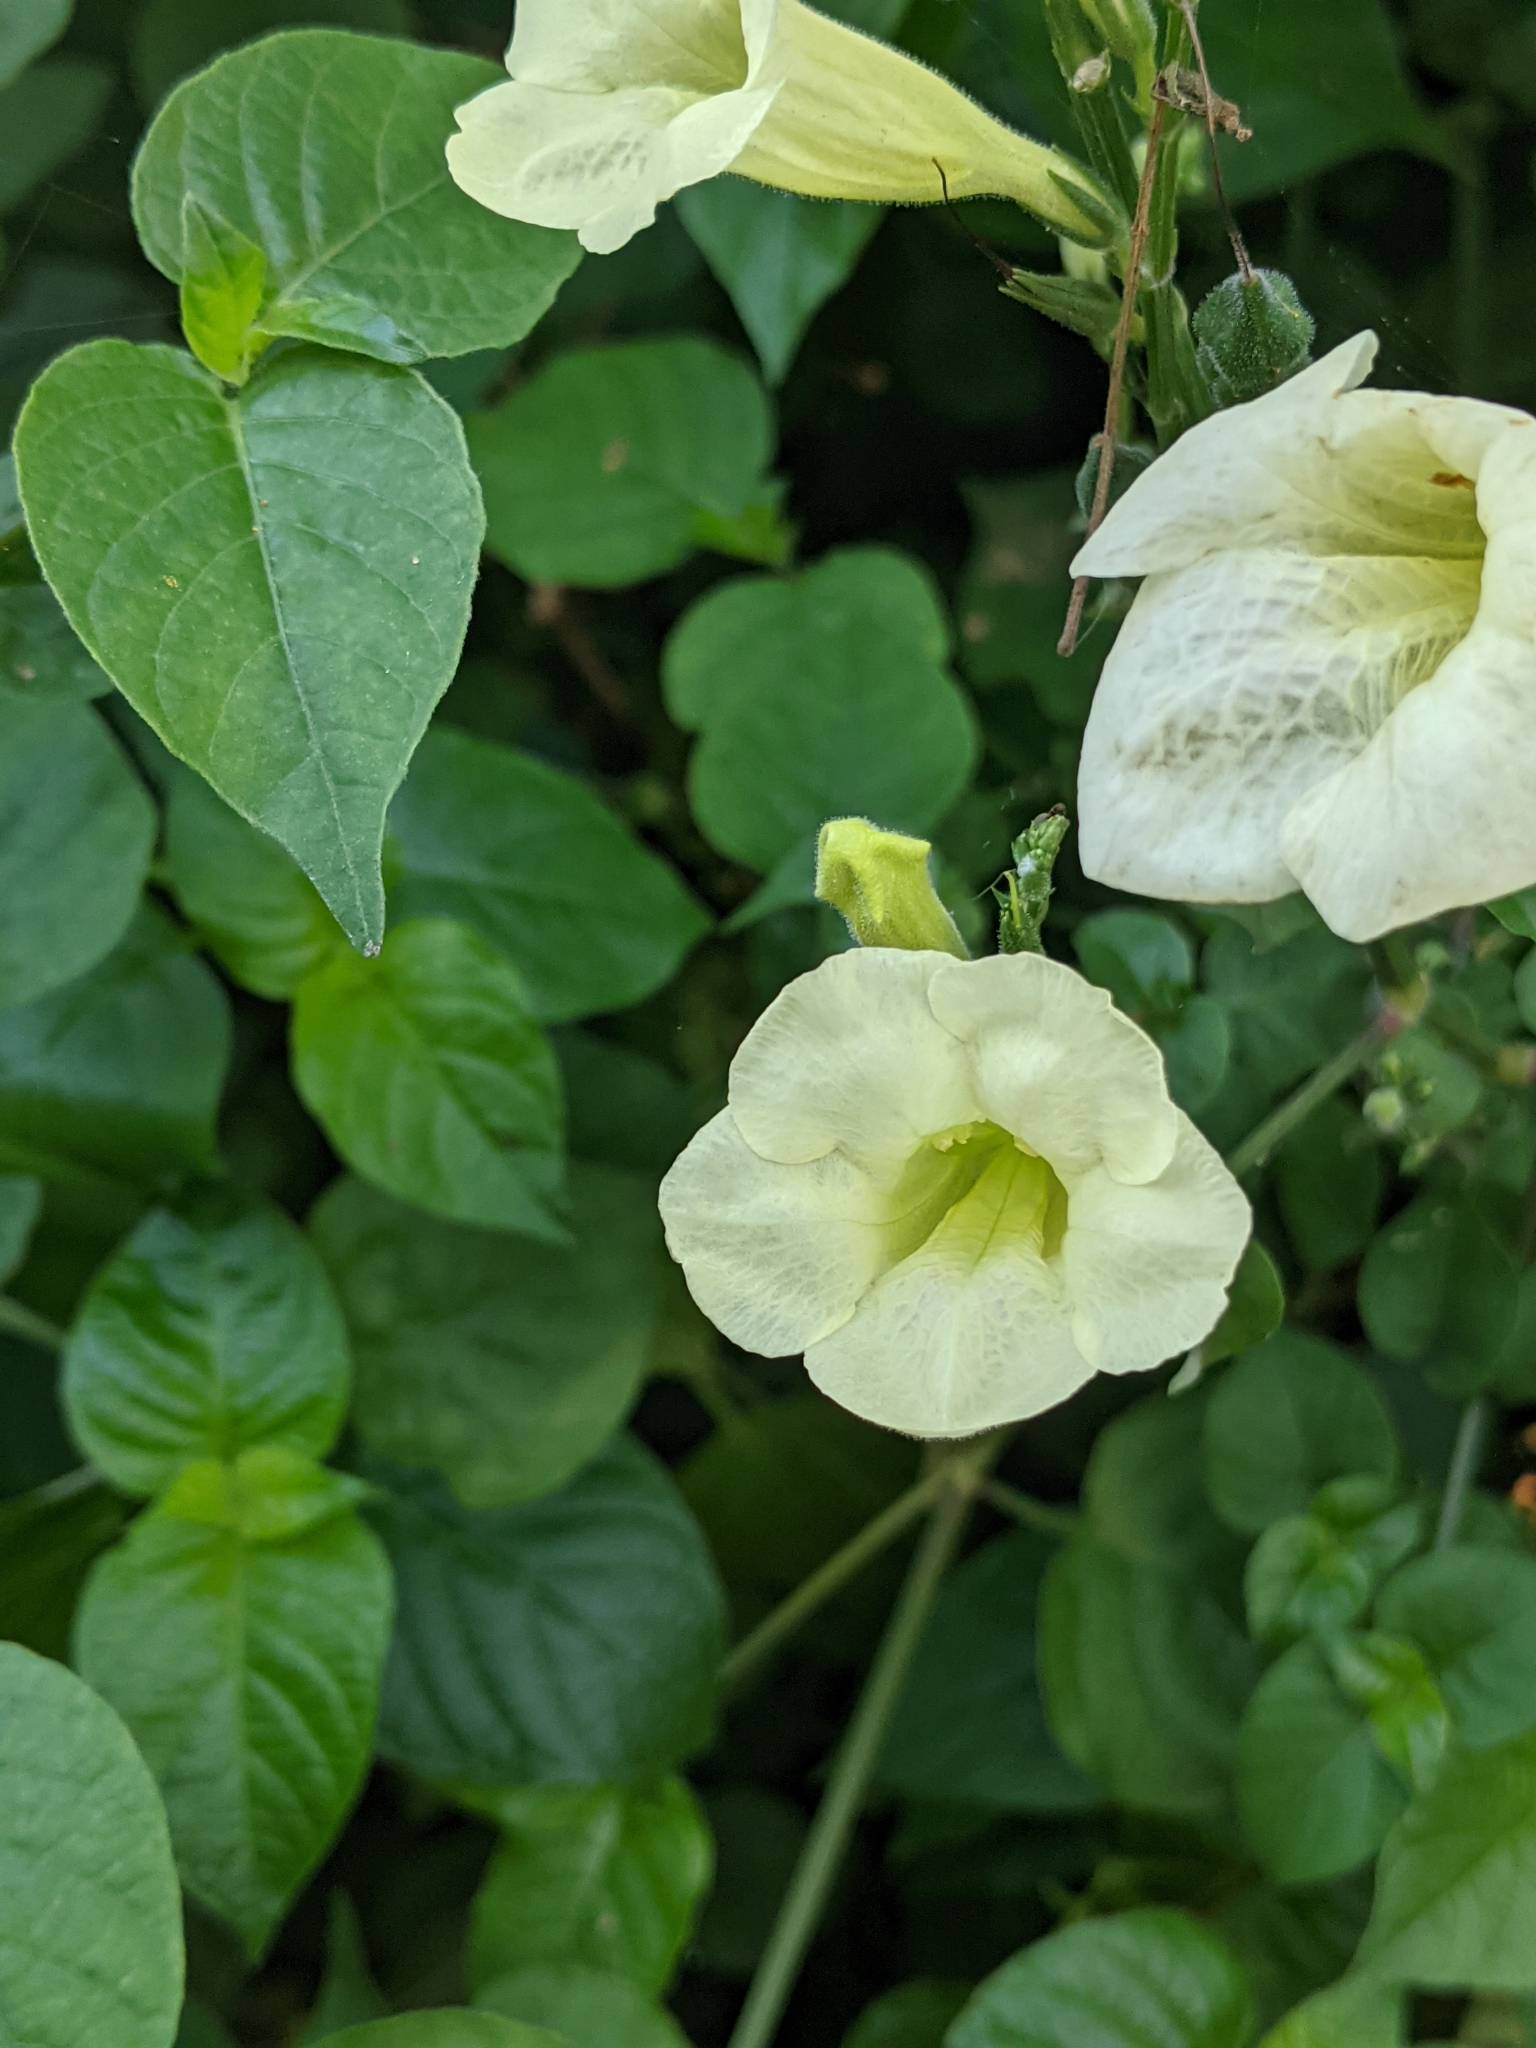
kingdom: Plantae
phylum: Tracheophyta
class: Magnoliopsida
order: Lamiales
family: Acanthaceae
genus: Asystasia
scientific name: Asystasia gangetica
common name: Chinese violet
